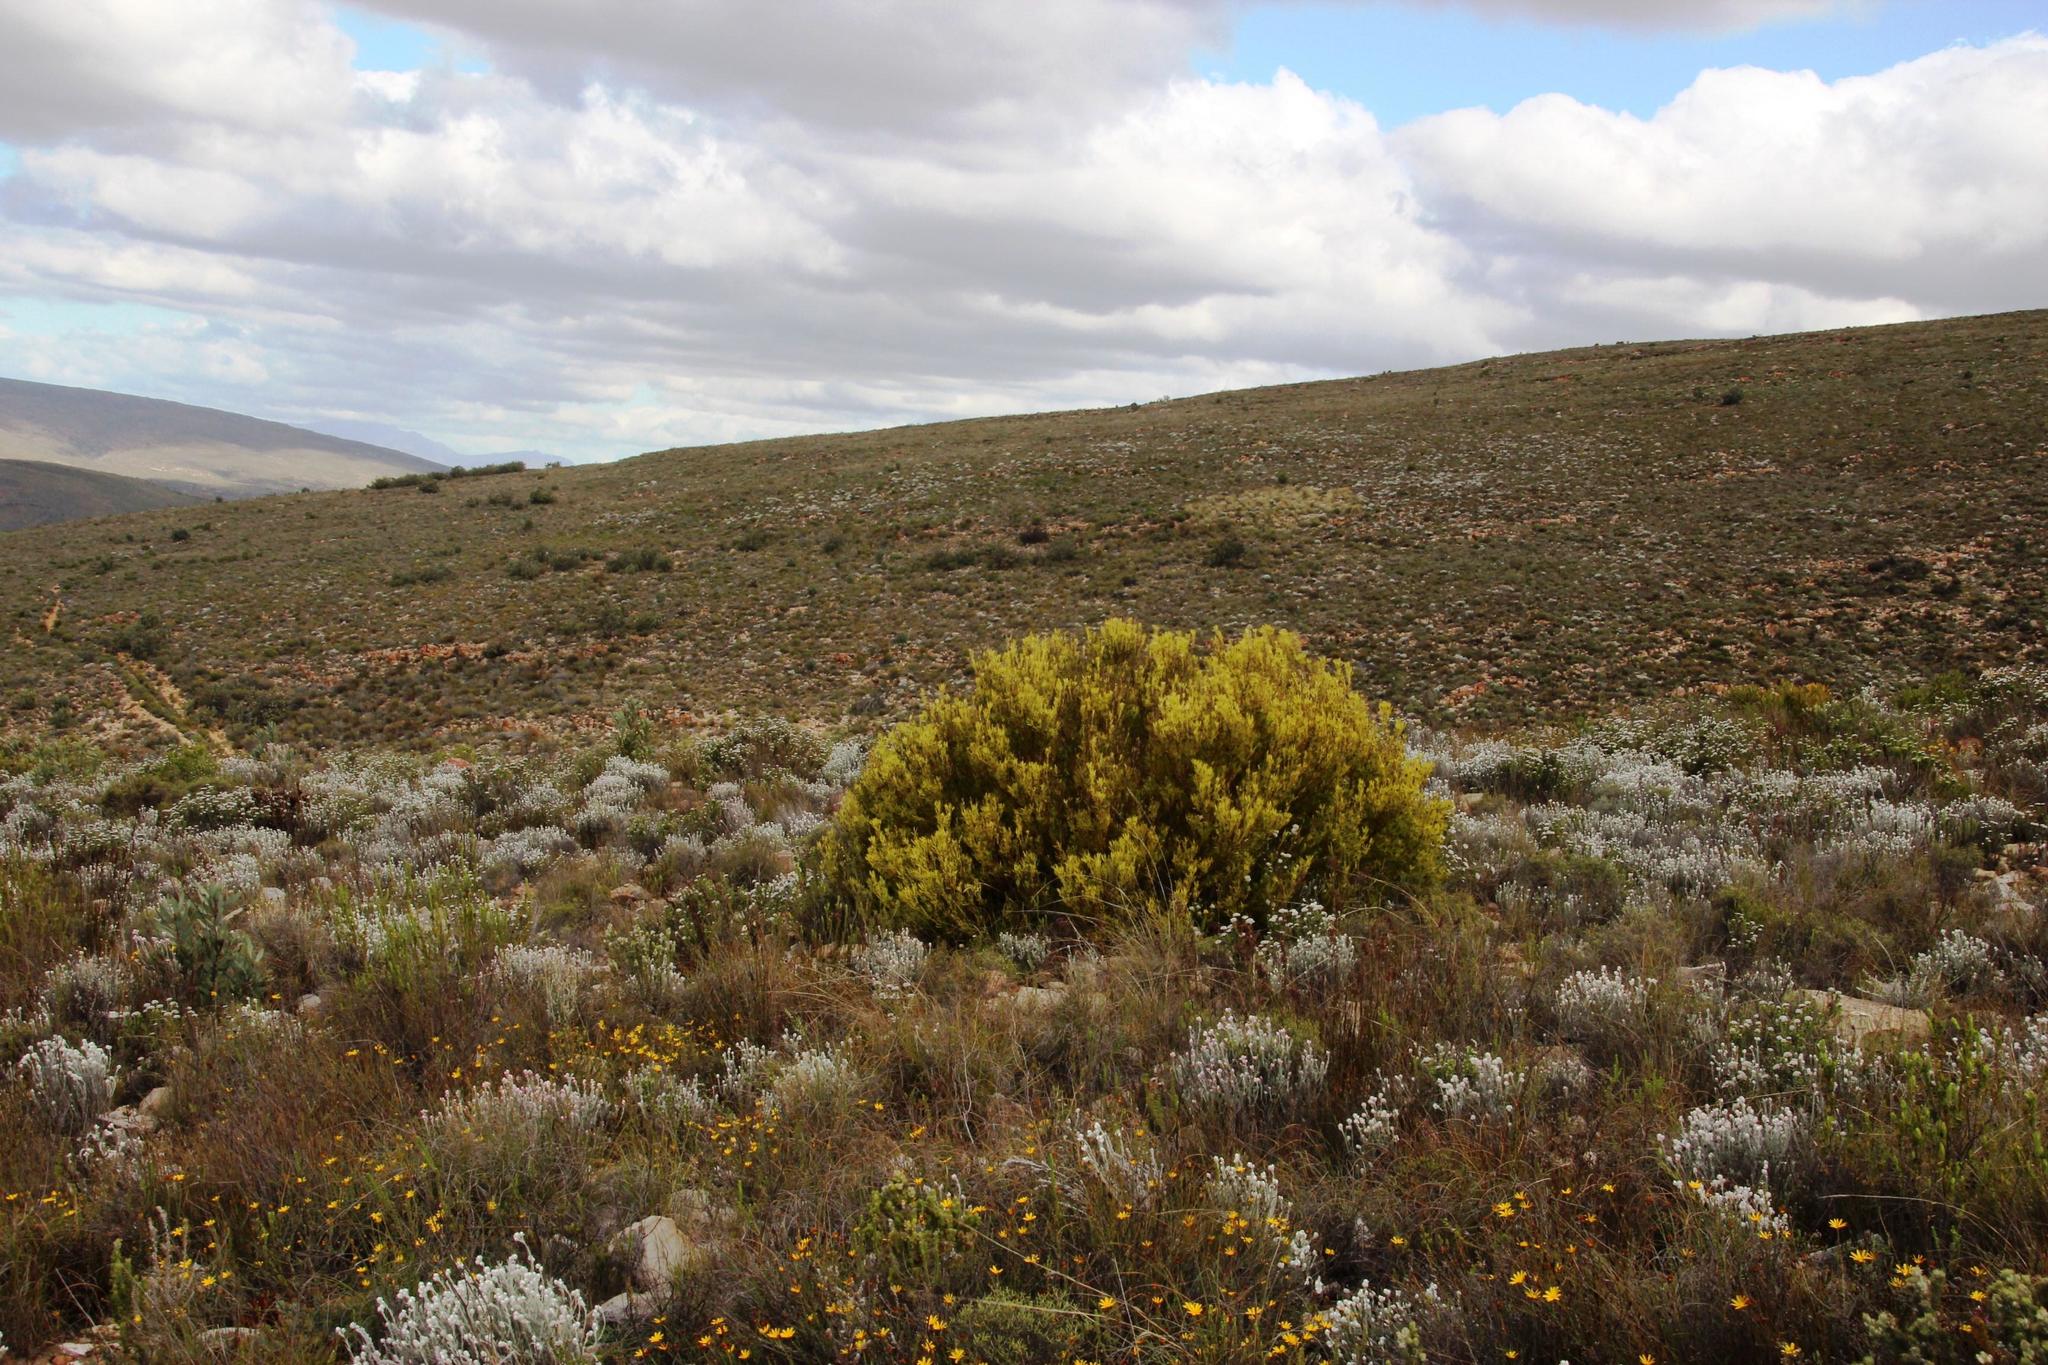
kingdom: Plantae
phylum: Tracheophyta
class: Magnoliopsida
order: Proteales
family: Proteaceae
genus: Leucadendron
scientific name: Leucadendron salignum
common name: Common sunshine conebush
